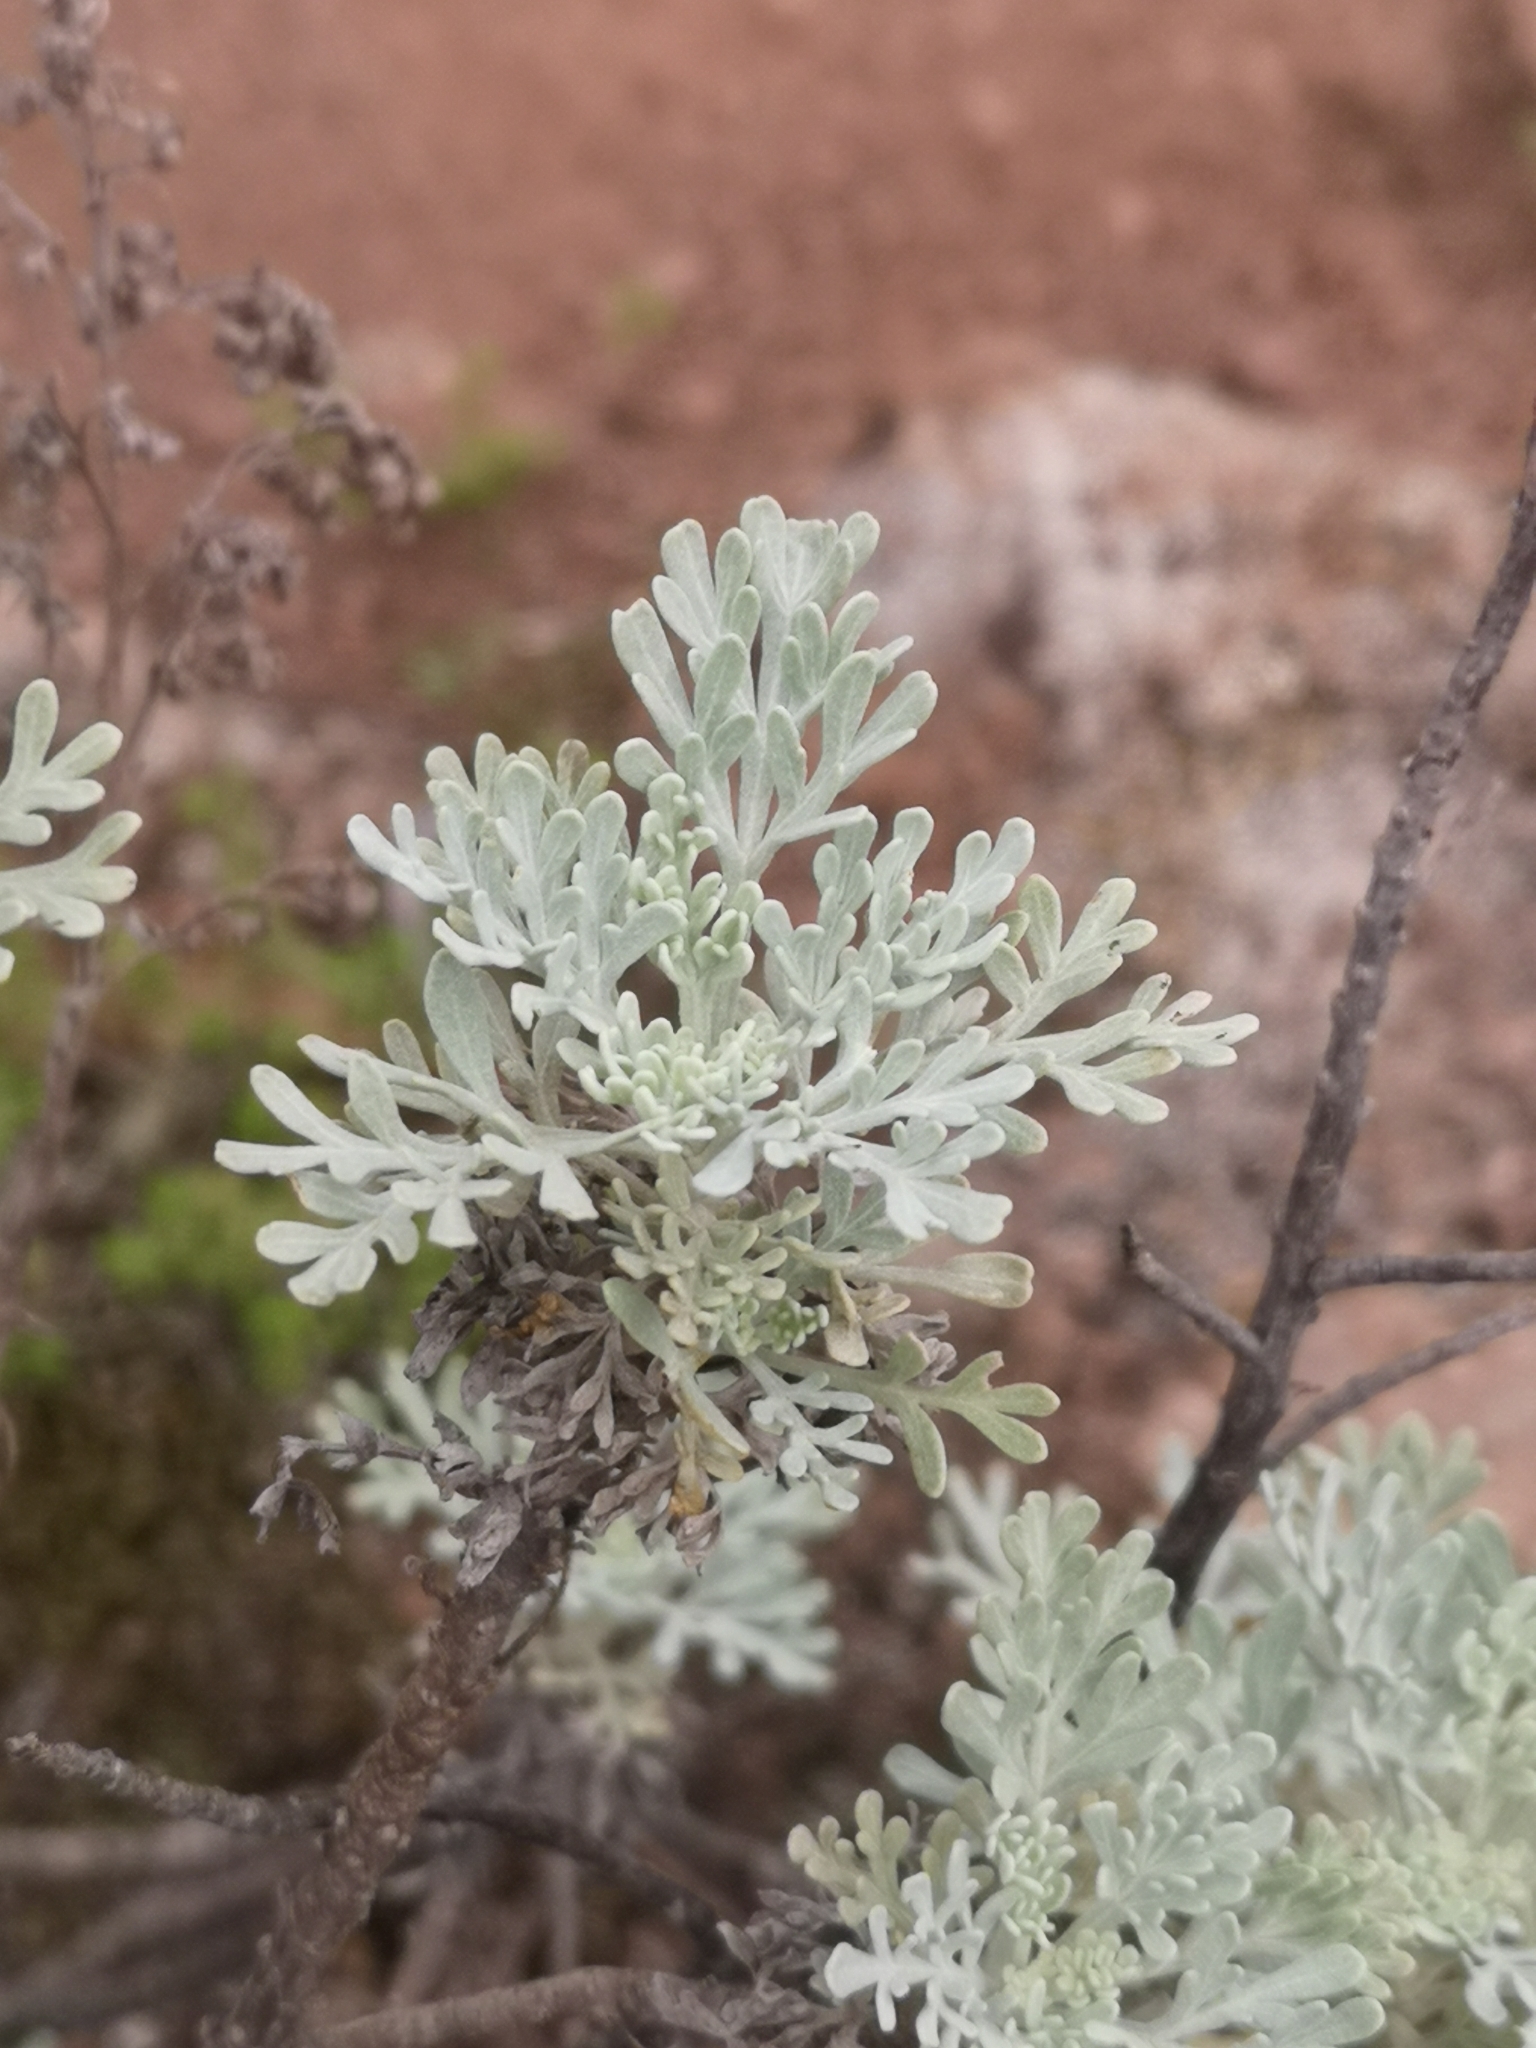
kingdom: Plantae
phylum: Tracheophyta
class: Magnoliopsida
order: Asterales
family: Asteraceae
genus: Artemisia
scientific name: Artemisia thuscula
